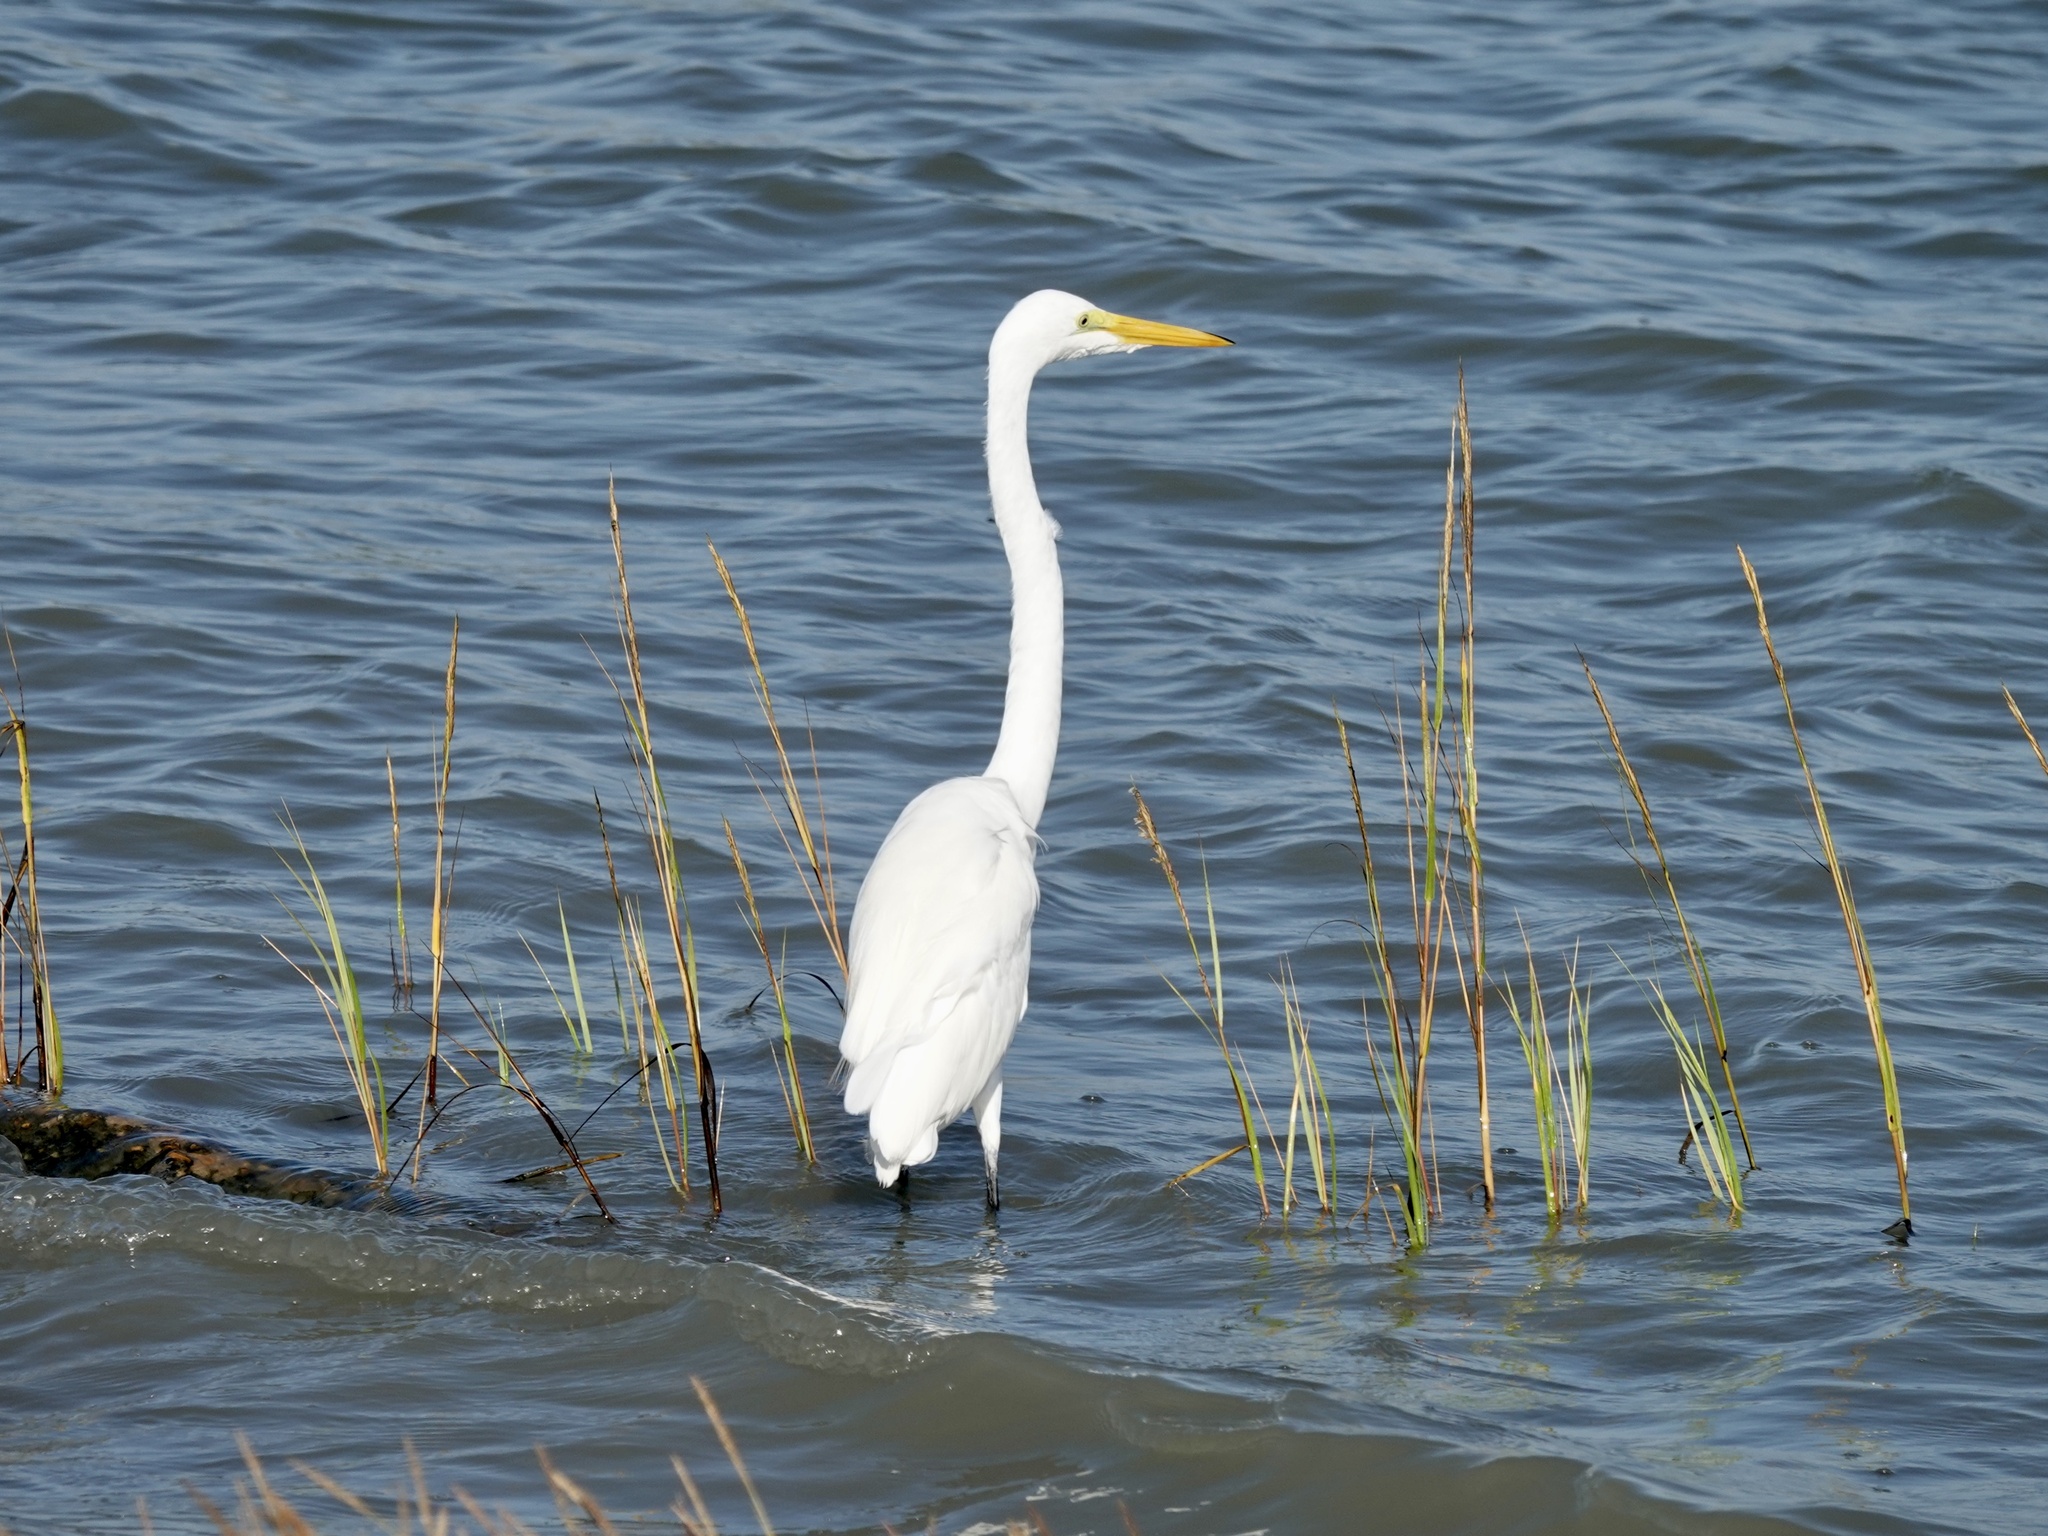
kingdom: Animalia
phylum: Chordata
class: Aves
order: Pelecaniformes
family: Ardeidae
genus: Ardea
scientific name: Ardea alba
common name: Great egret
